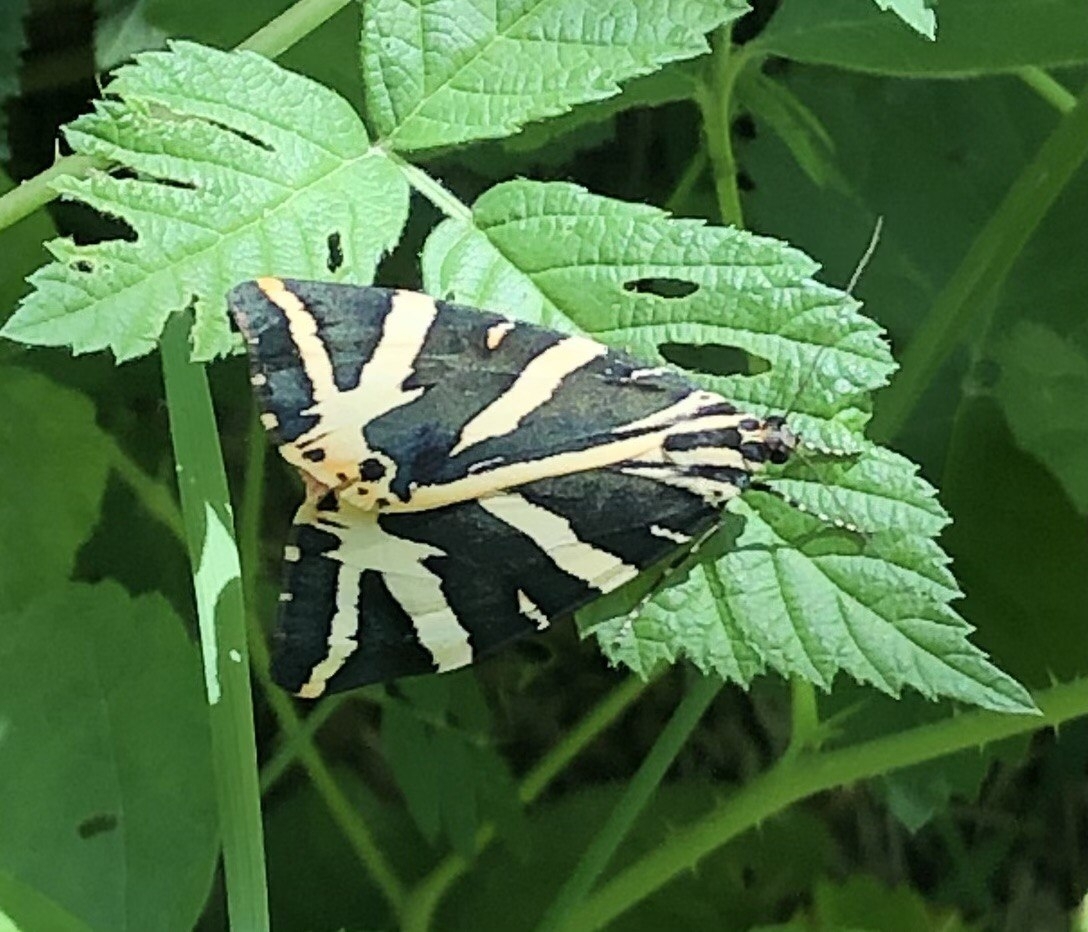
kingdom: Animalia
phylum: Arthropoda
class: Insecta
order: Lepidoptera
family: Erebidae
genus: Euplagia
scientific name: Euplagia quadripunctaria
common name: Jersey tiger
